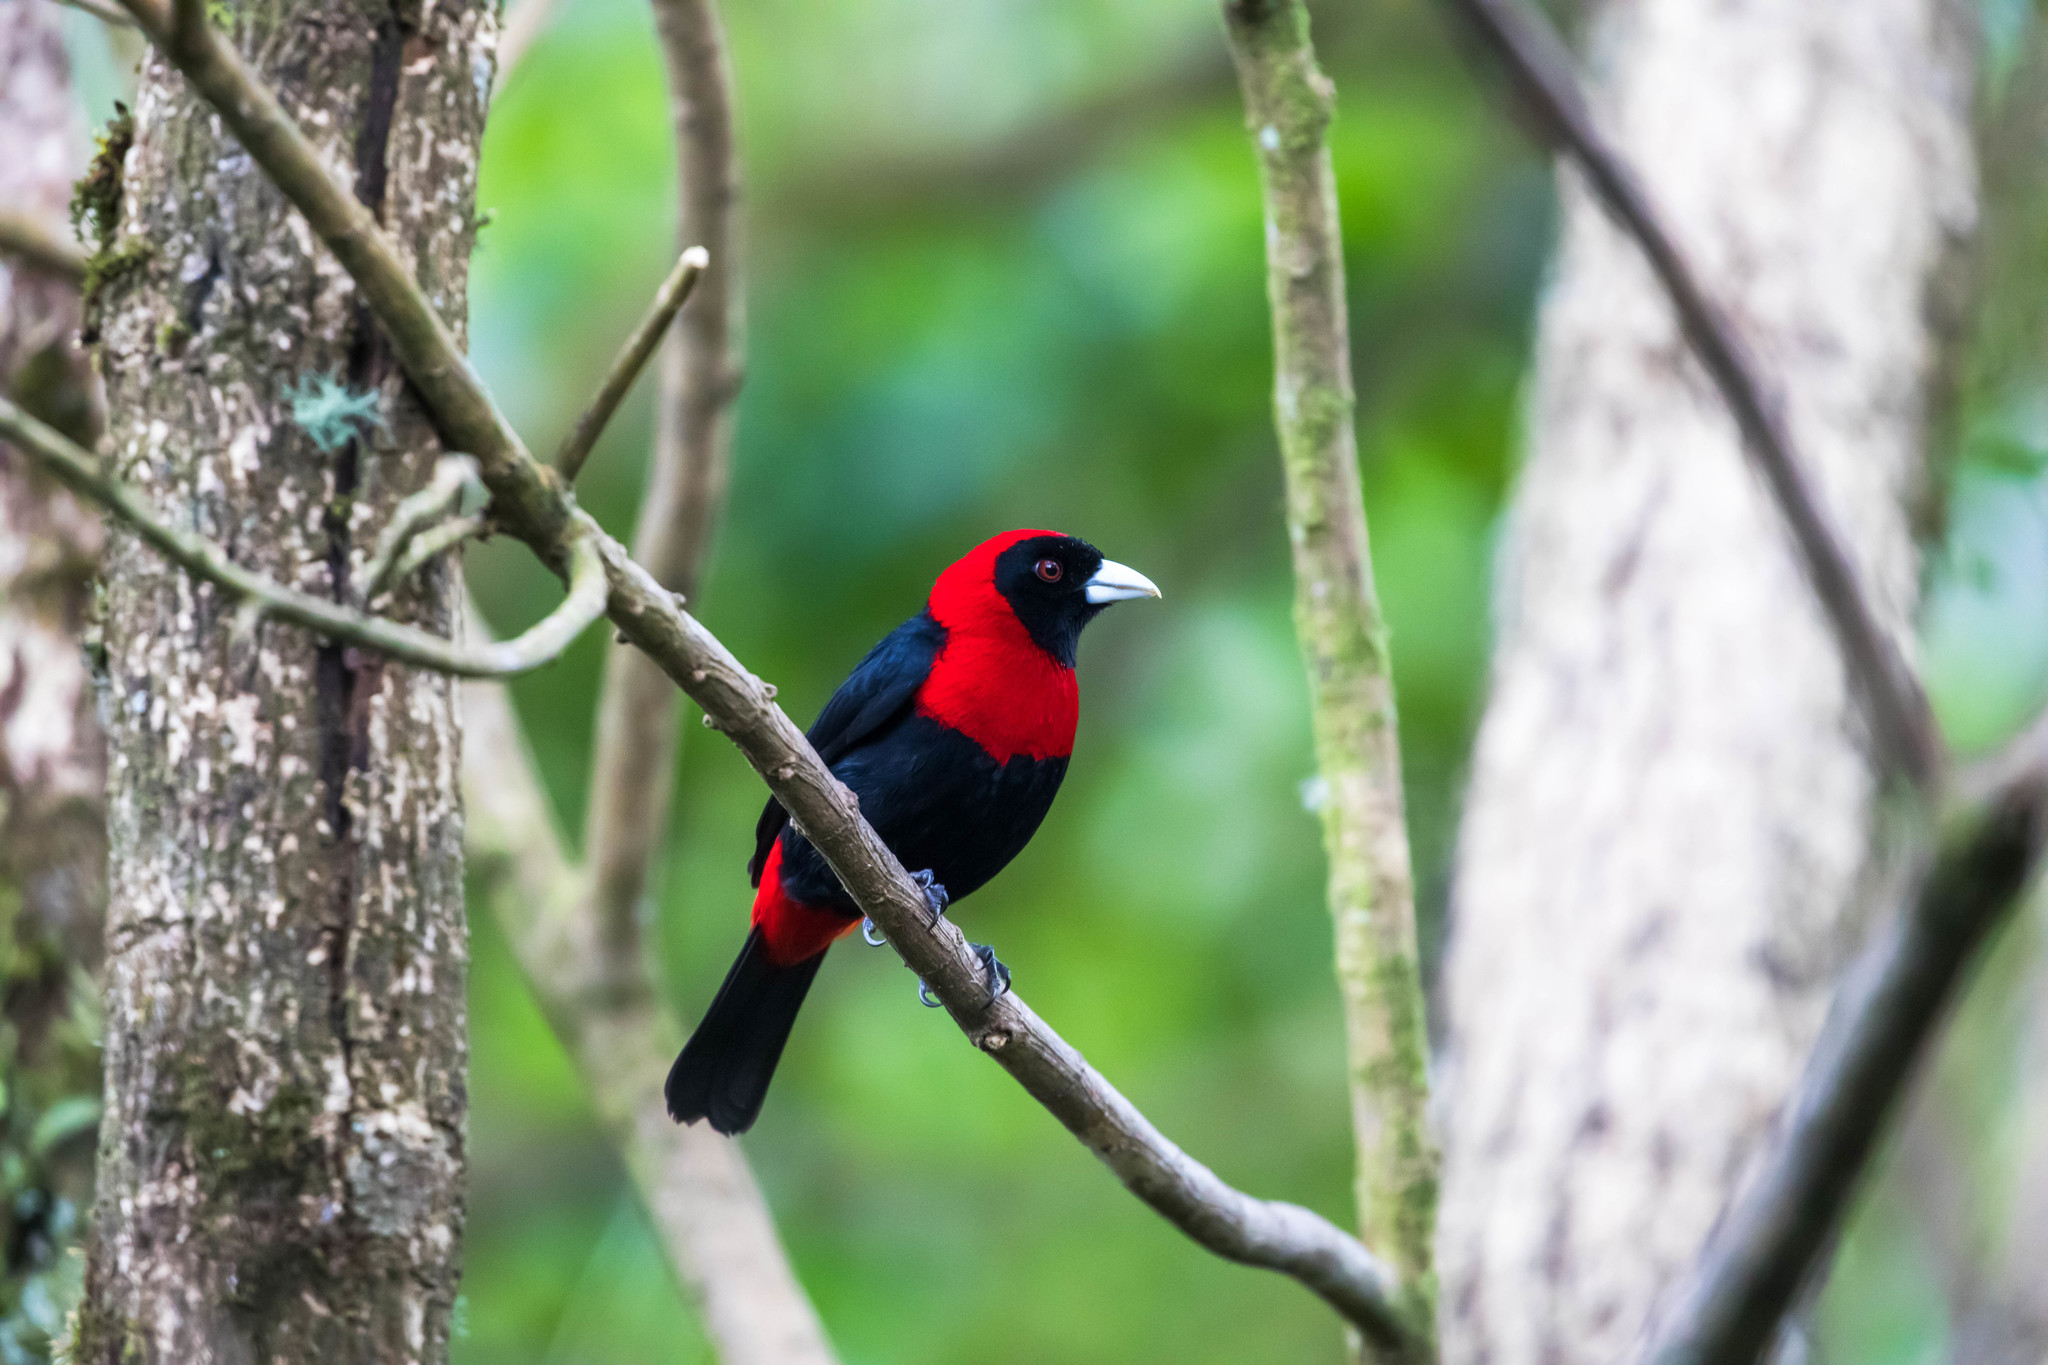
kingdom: Animalia
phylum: Chordata
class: Aves
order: Passeriformes
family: Thraupidae
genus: Ramphocelus
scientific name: Ramphocelus sanguinolentus
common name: Crimson-collared tanager
